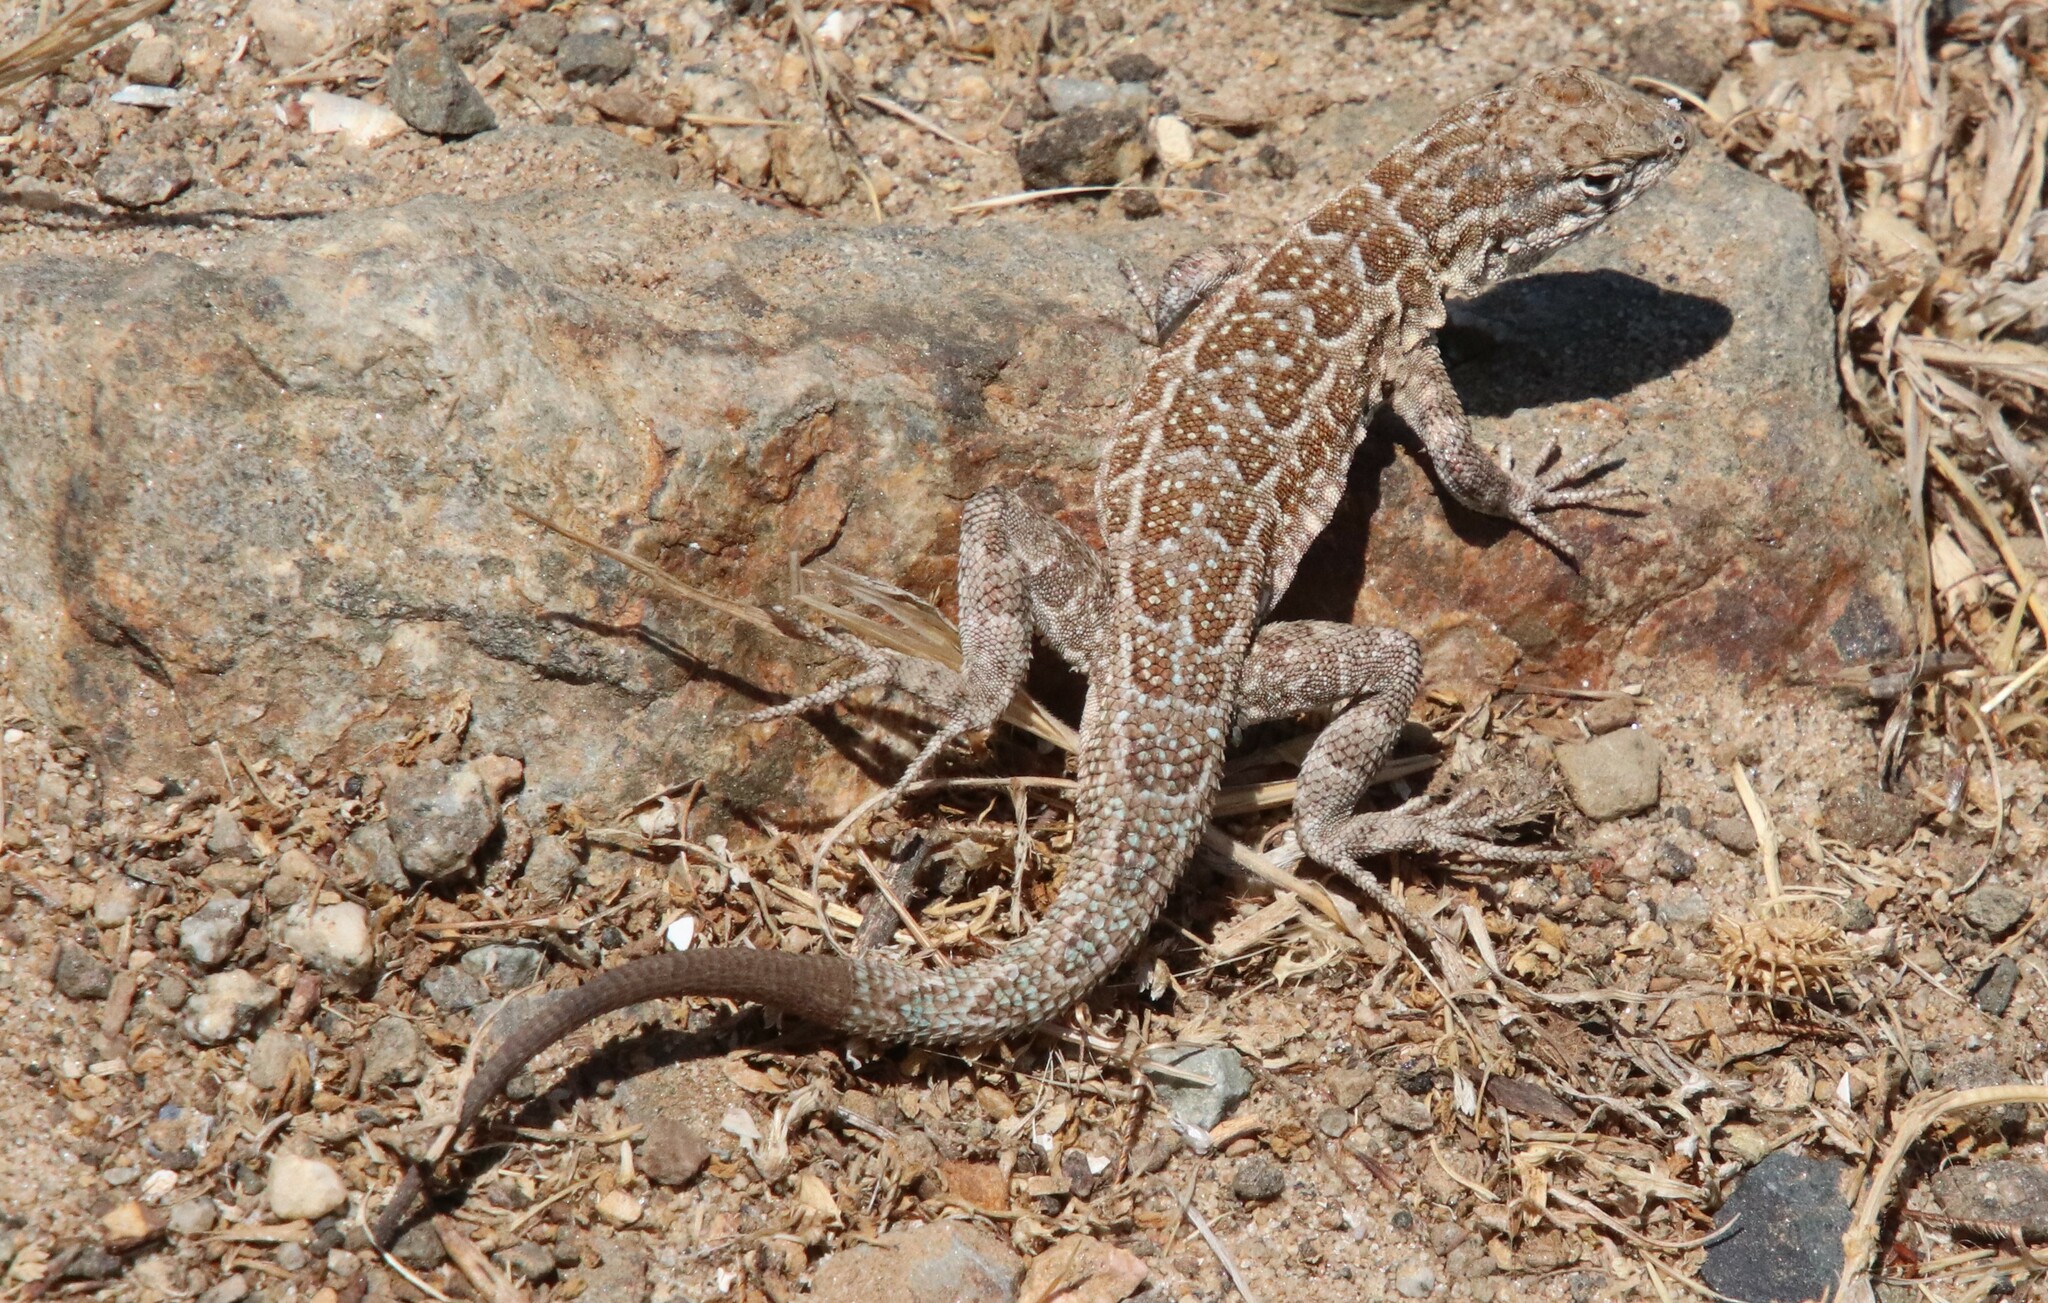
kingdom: Animalia
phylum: Chordata
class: Squamata
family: Phrynosomatidae
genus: Uta
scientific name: Uta stansburiana
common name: Side-blotched lizard
